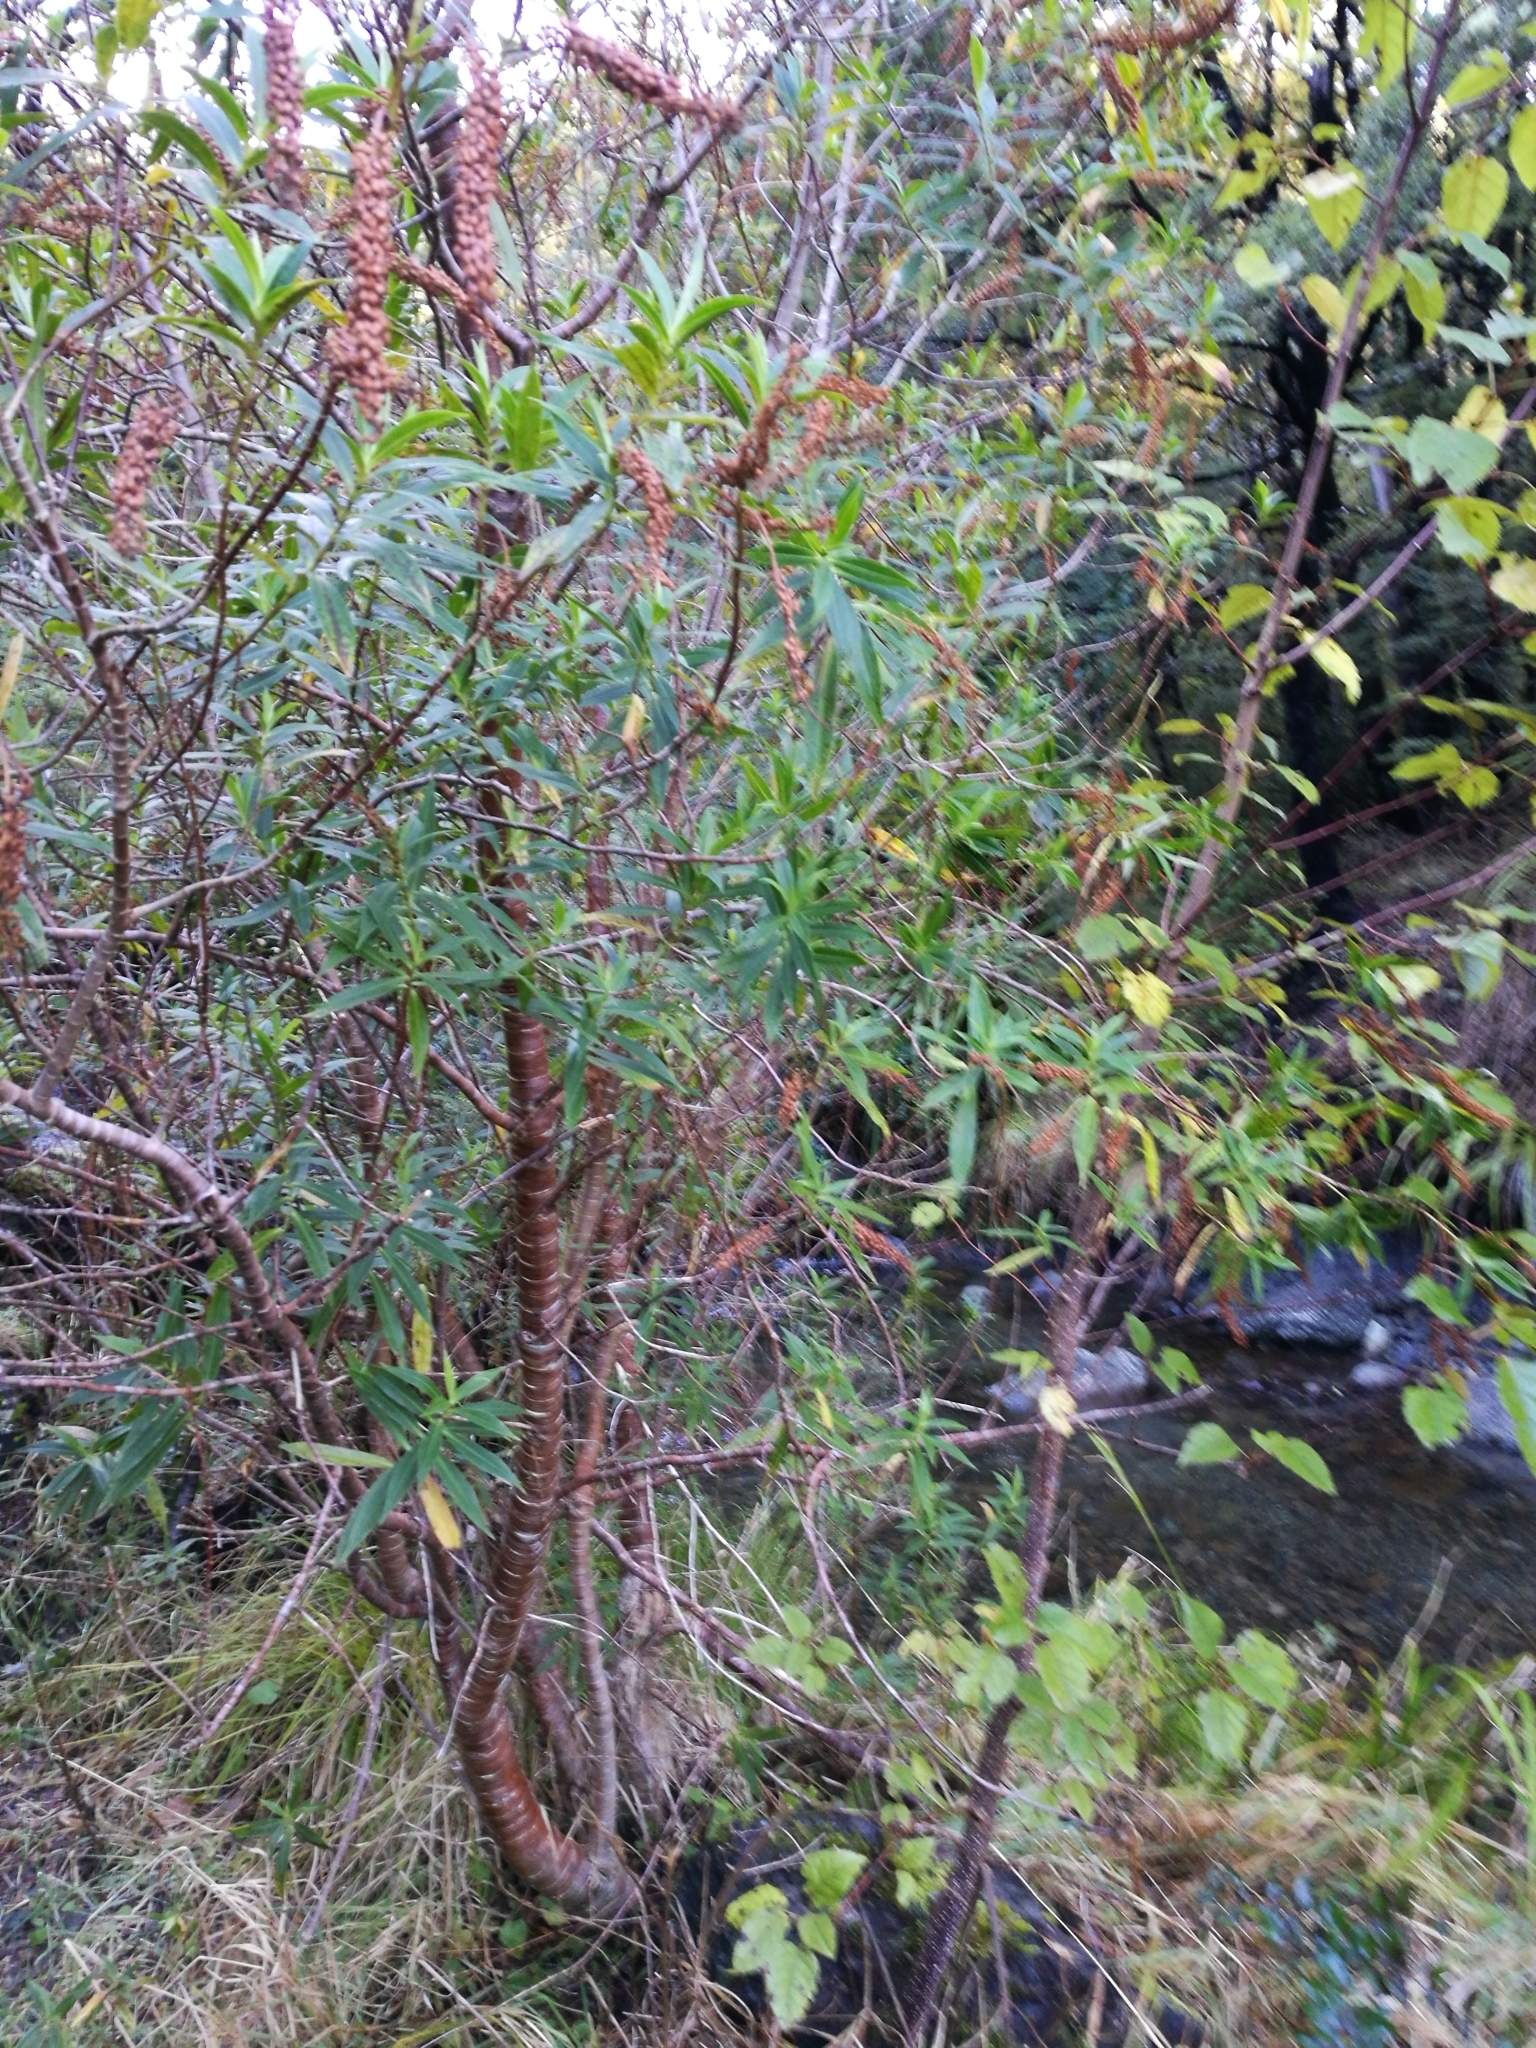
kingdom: Plantae
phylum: Tracheophyta
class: Magnoliopsida
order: Lamiales
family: Plantaginaceae
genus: Veronica
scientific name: Veronica salicifolia
